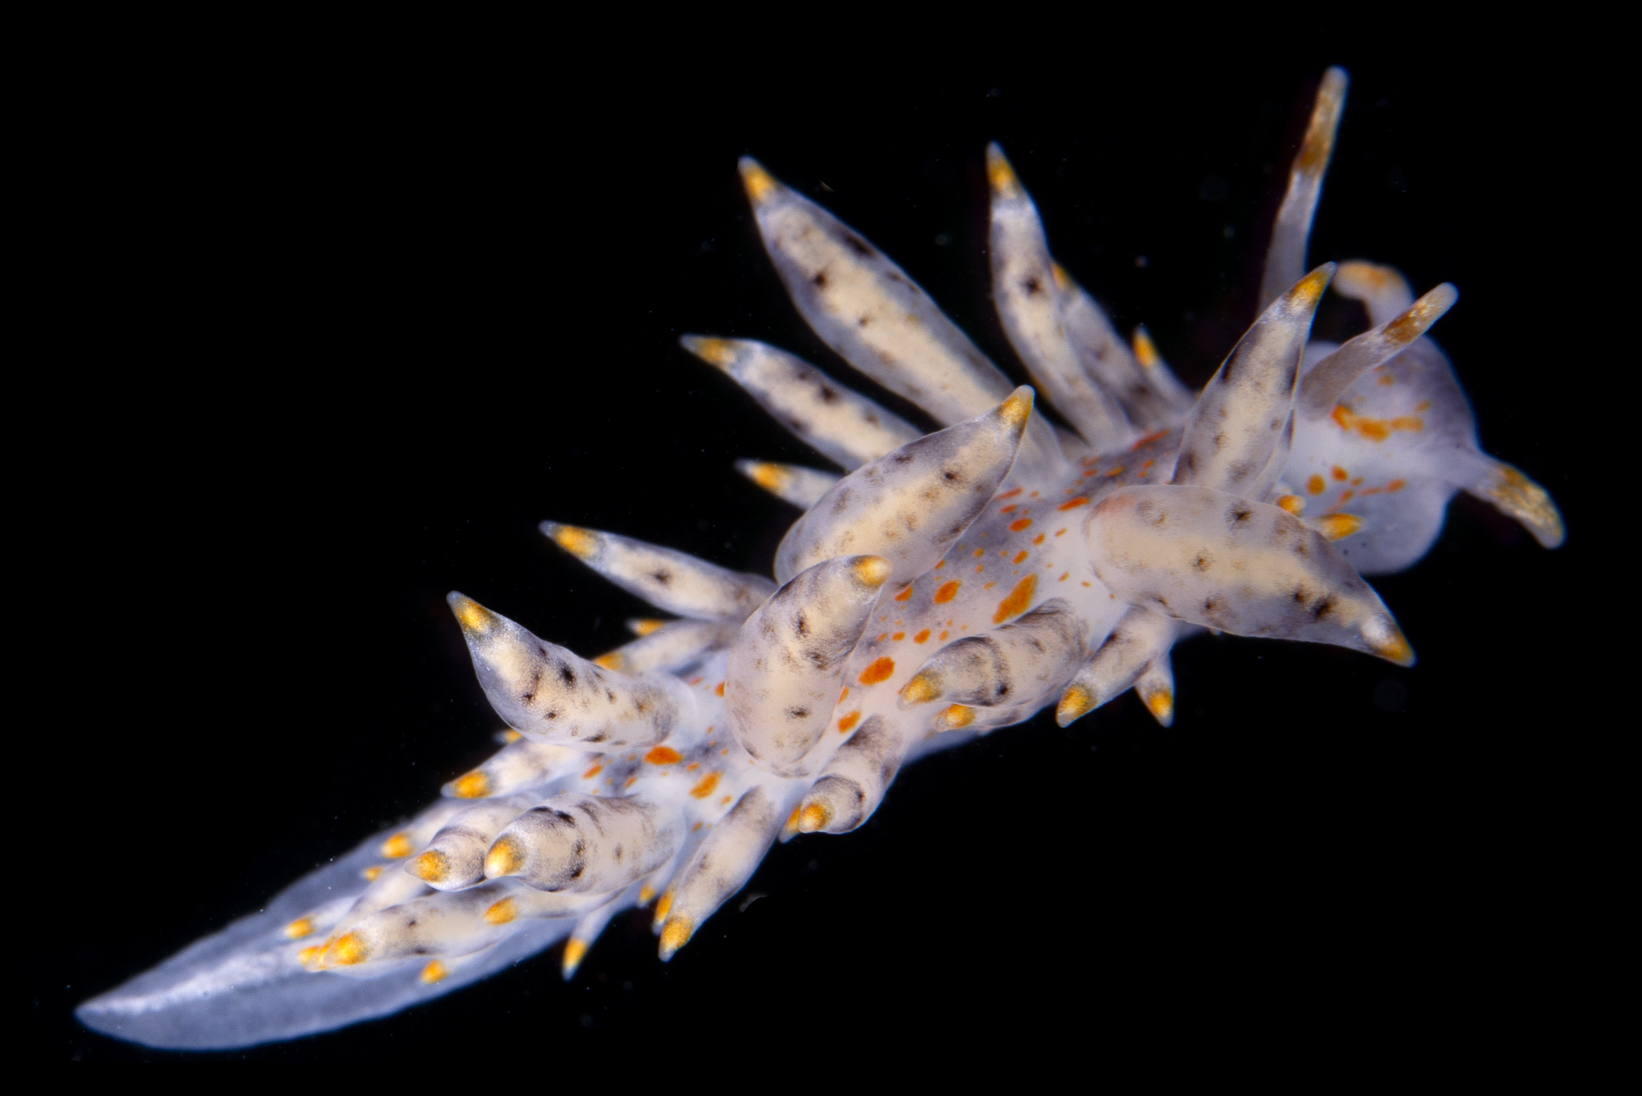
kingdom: Animalia
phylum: Mollusca
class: Gastropoda
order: Nudibranchia
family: Eubranchidae
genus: Amphorina
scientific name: Amphorina andra
